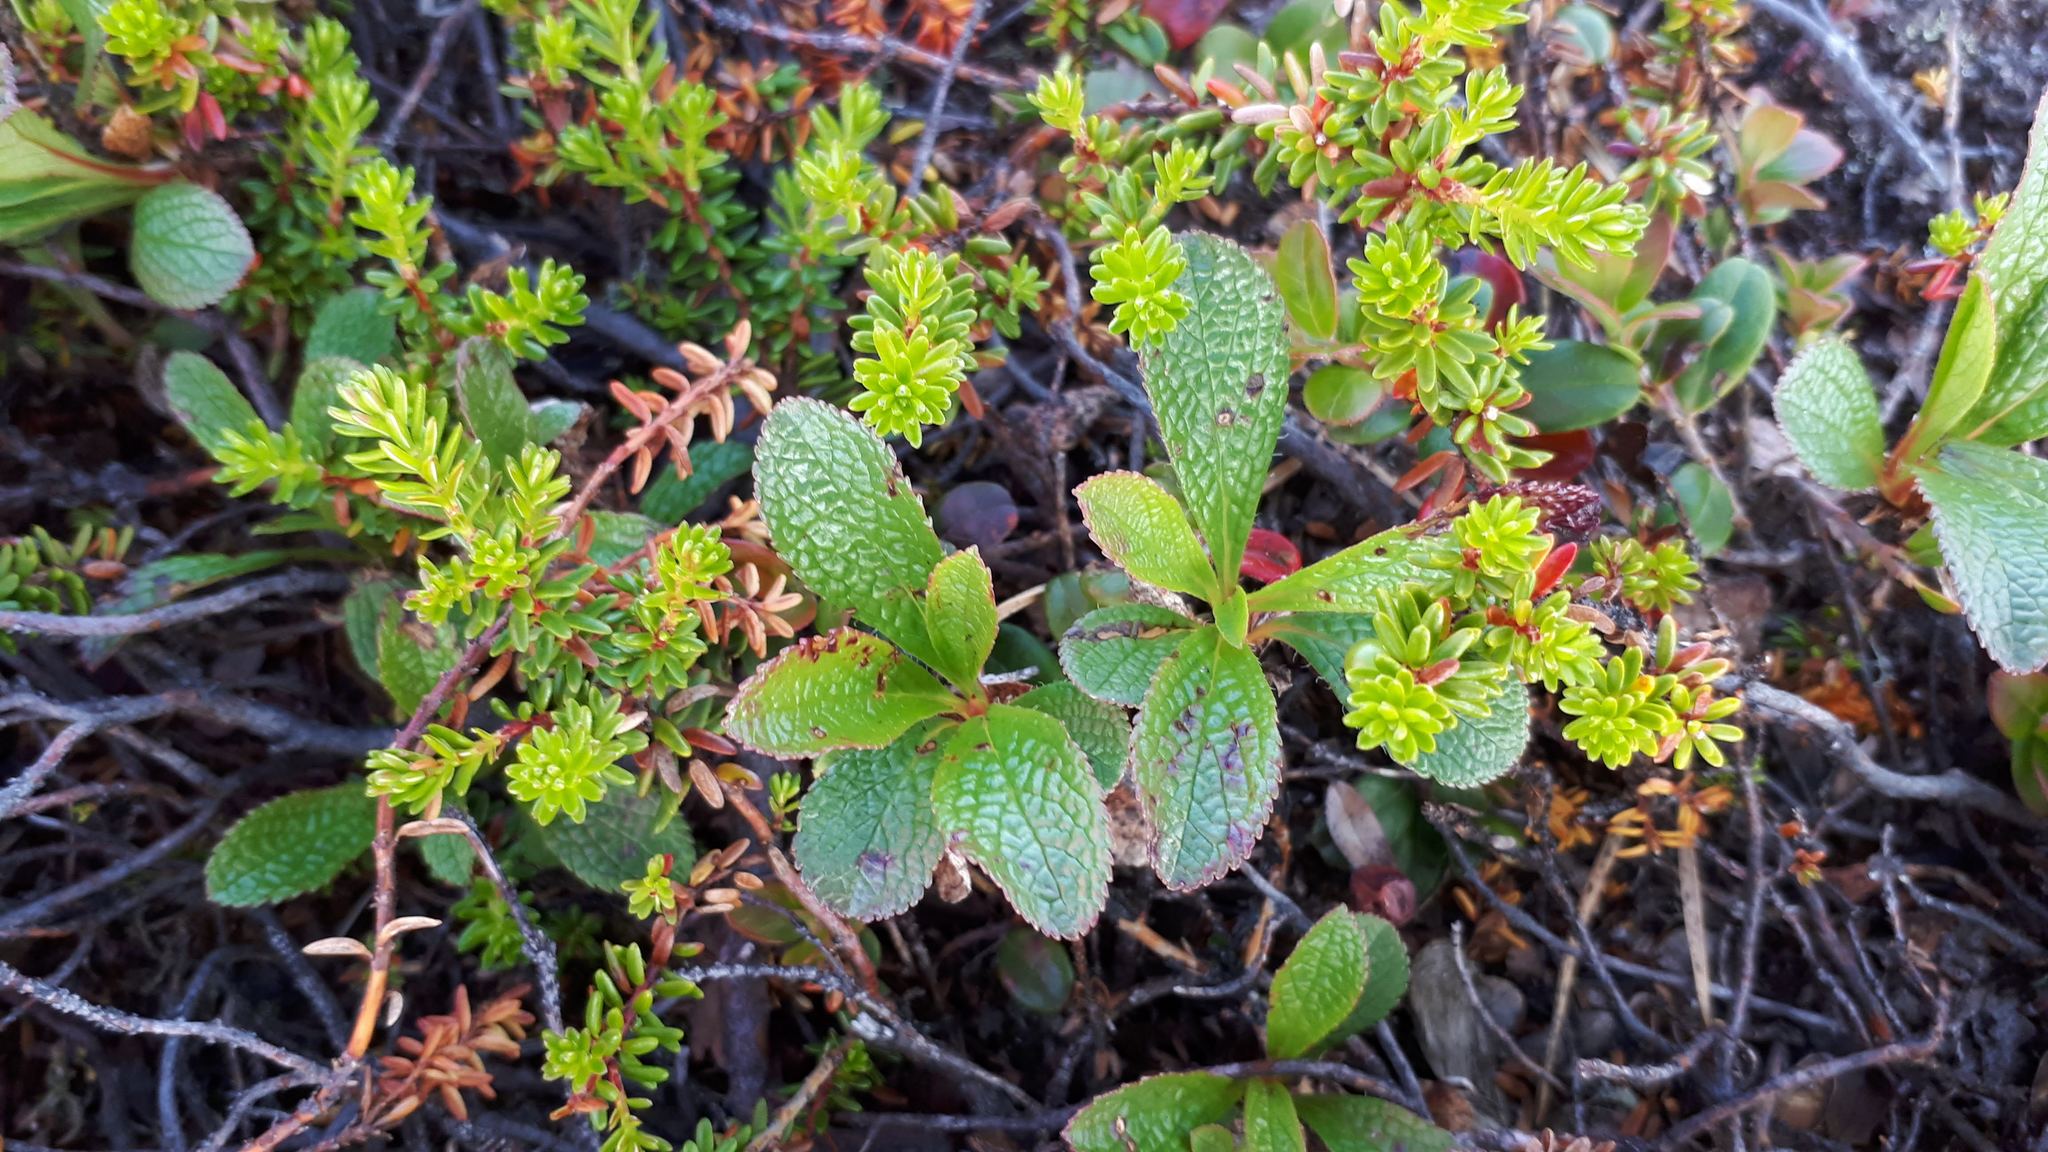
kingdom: Plantae
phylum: Tracheophyta
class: Magnoliopsida
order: Ericales
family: Ericaceae
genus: Arctostaphylos
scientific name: Arctostaphylos alpinus
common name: Alpine bearberry
